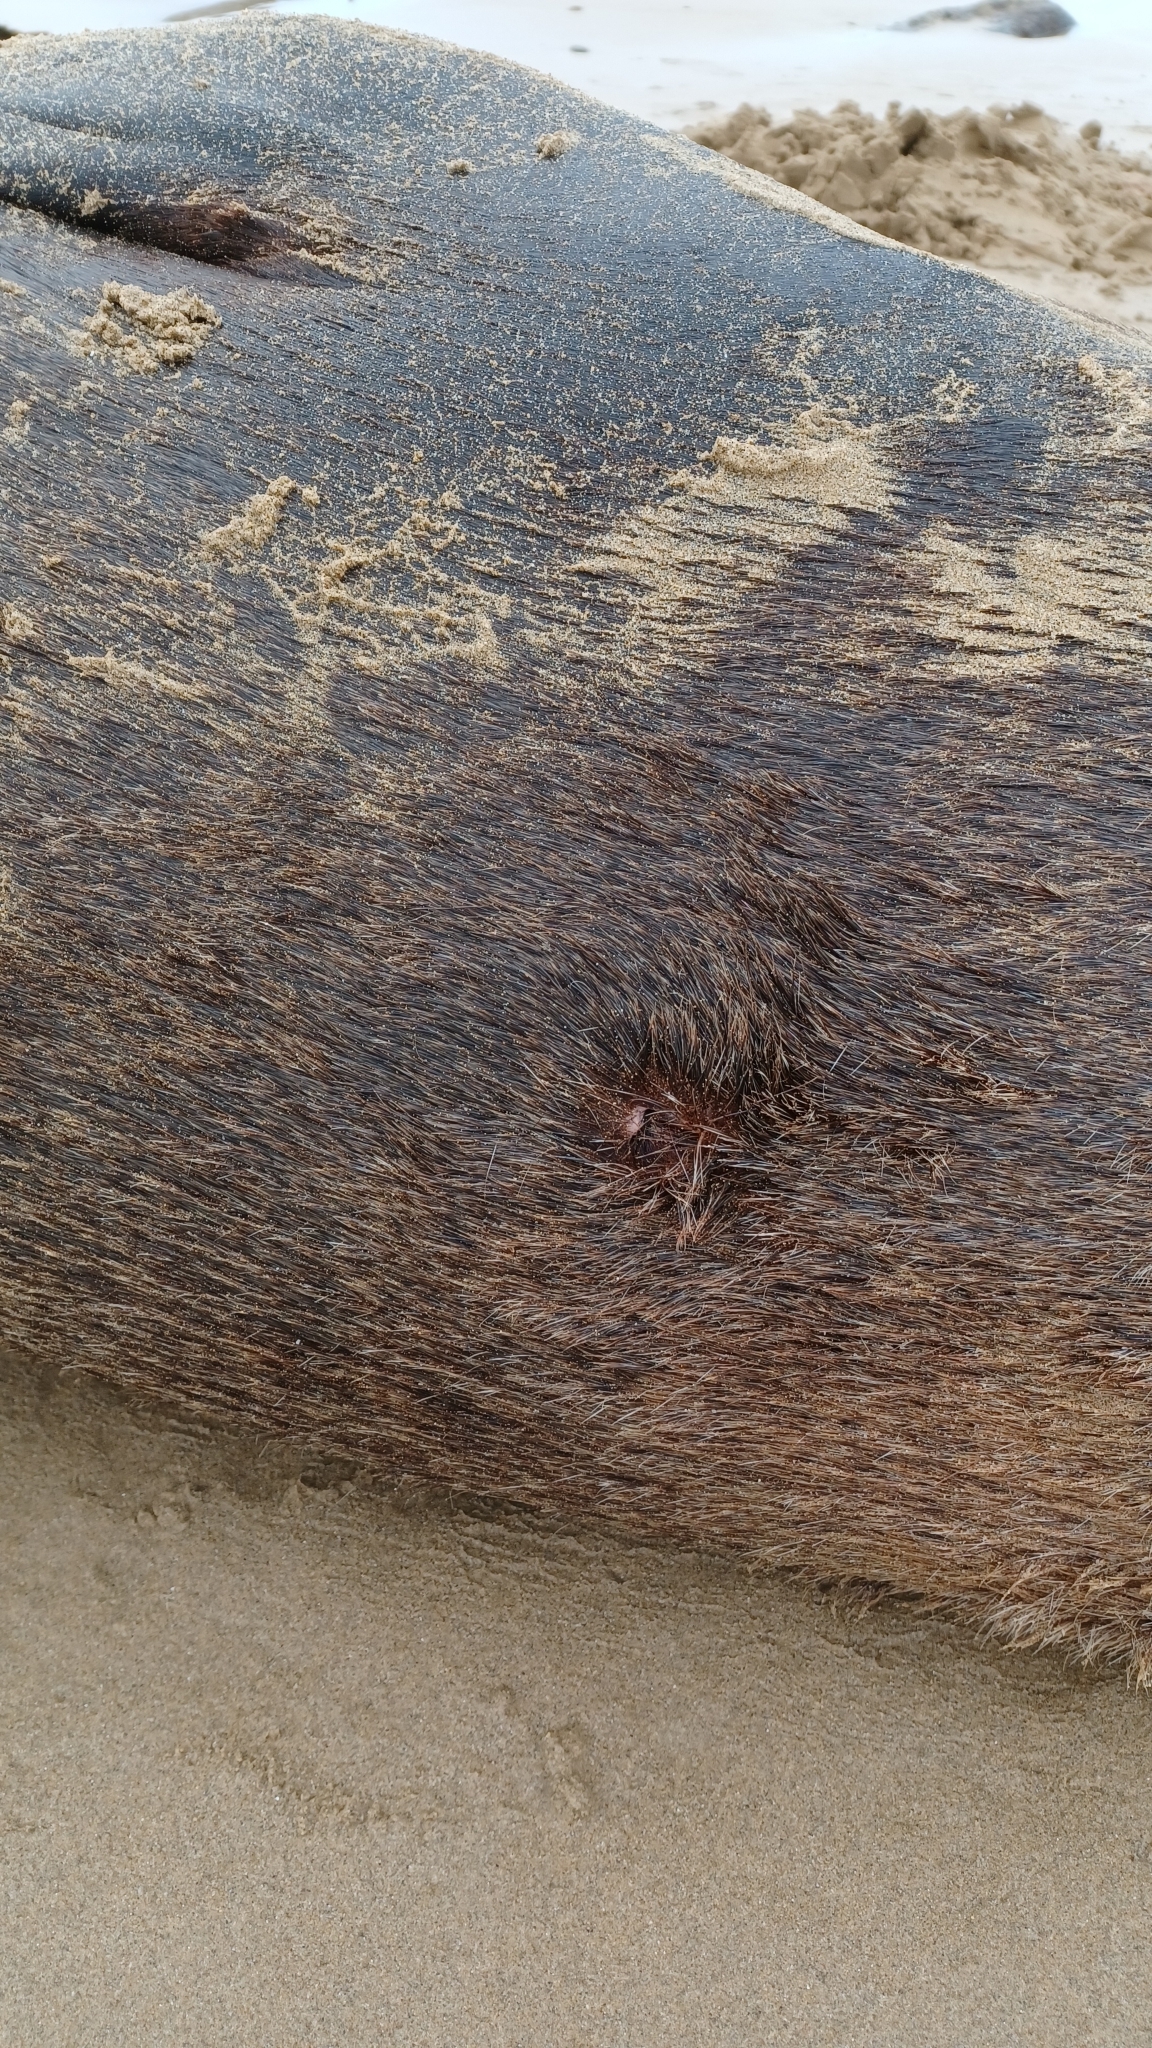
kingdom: Animalia
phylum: Chordata
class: Mammalia
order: Carnivora
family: Otariidae
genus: Arctocephalus
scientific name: Arctocephalus pusillus
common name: Brown fur seal
